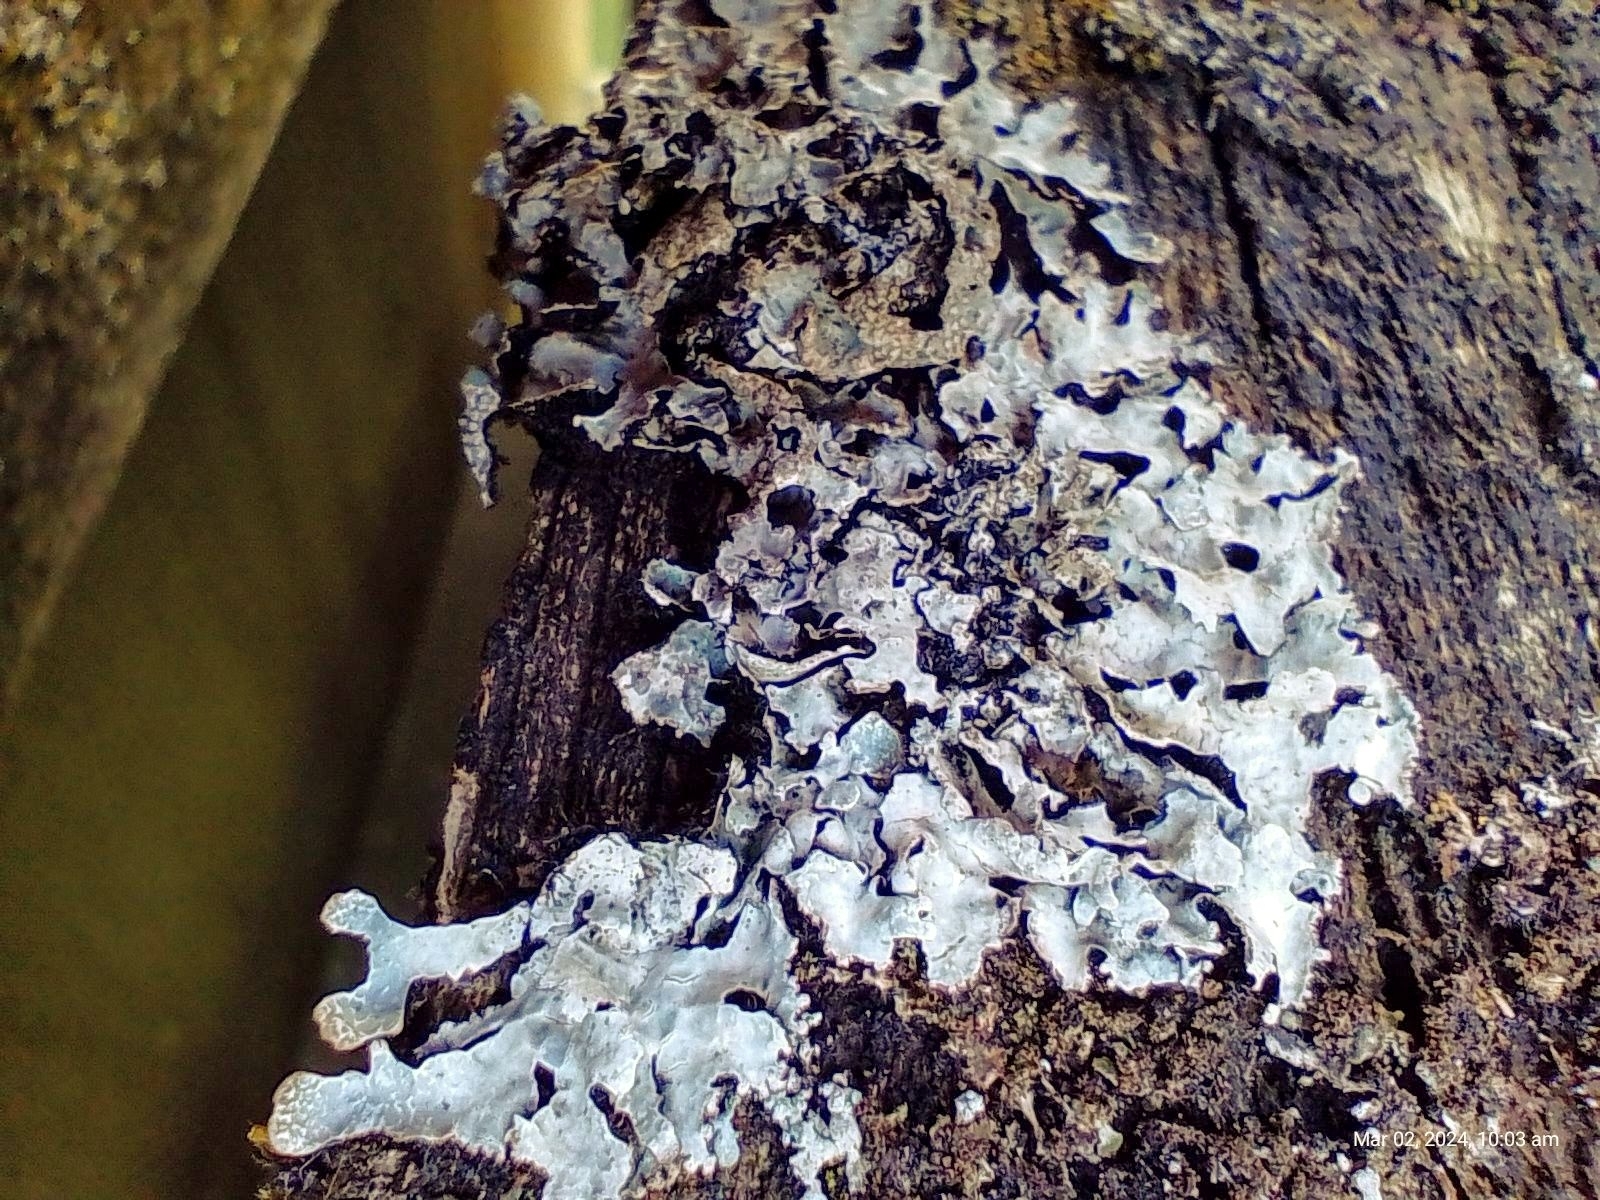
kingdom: Fungi
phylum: Ascomycota
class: Lecanoromycetes
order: Lecanorales
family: Parmeliaceae
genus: Parmelia
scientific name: Parmelia sulcata
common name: Netted shield lichen
